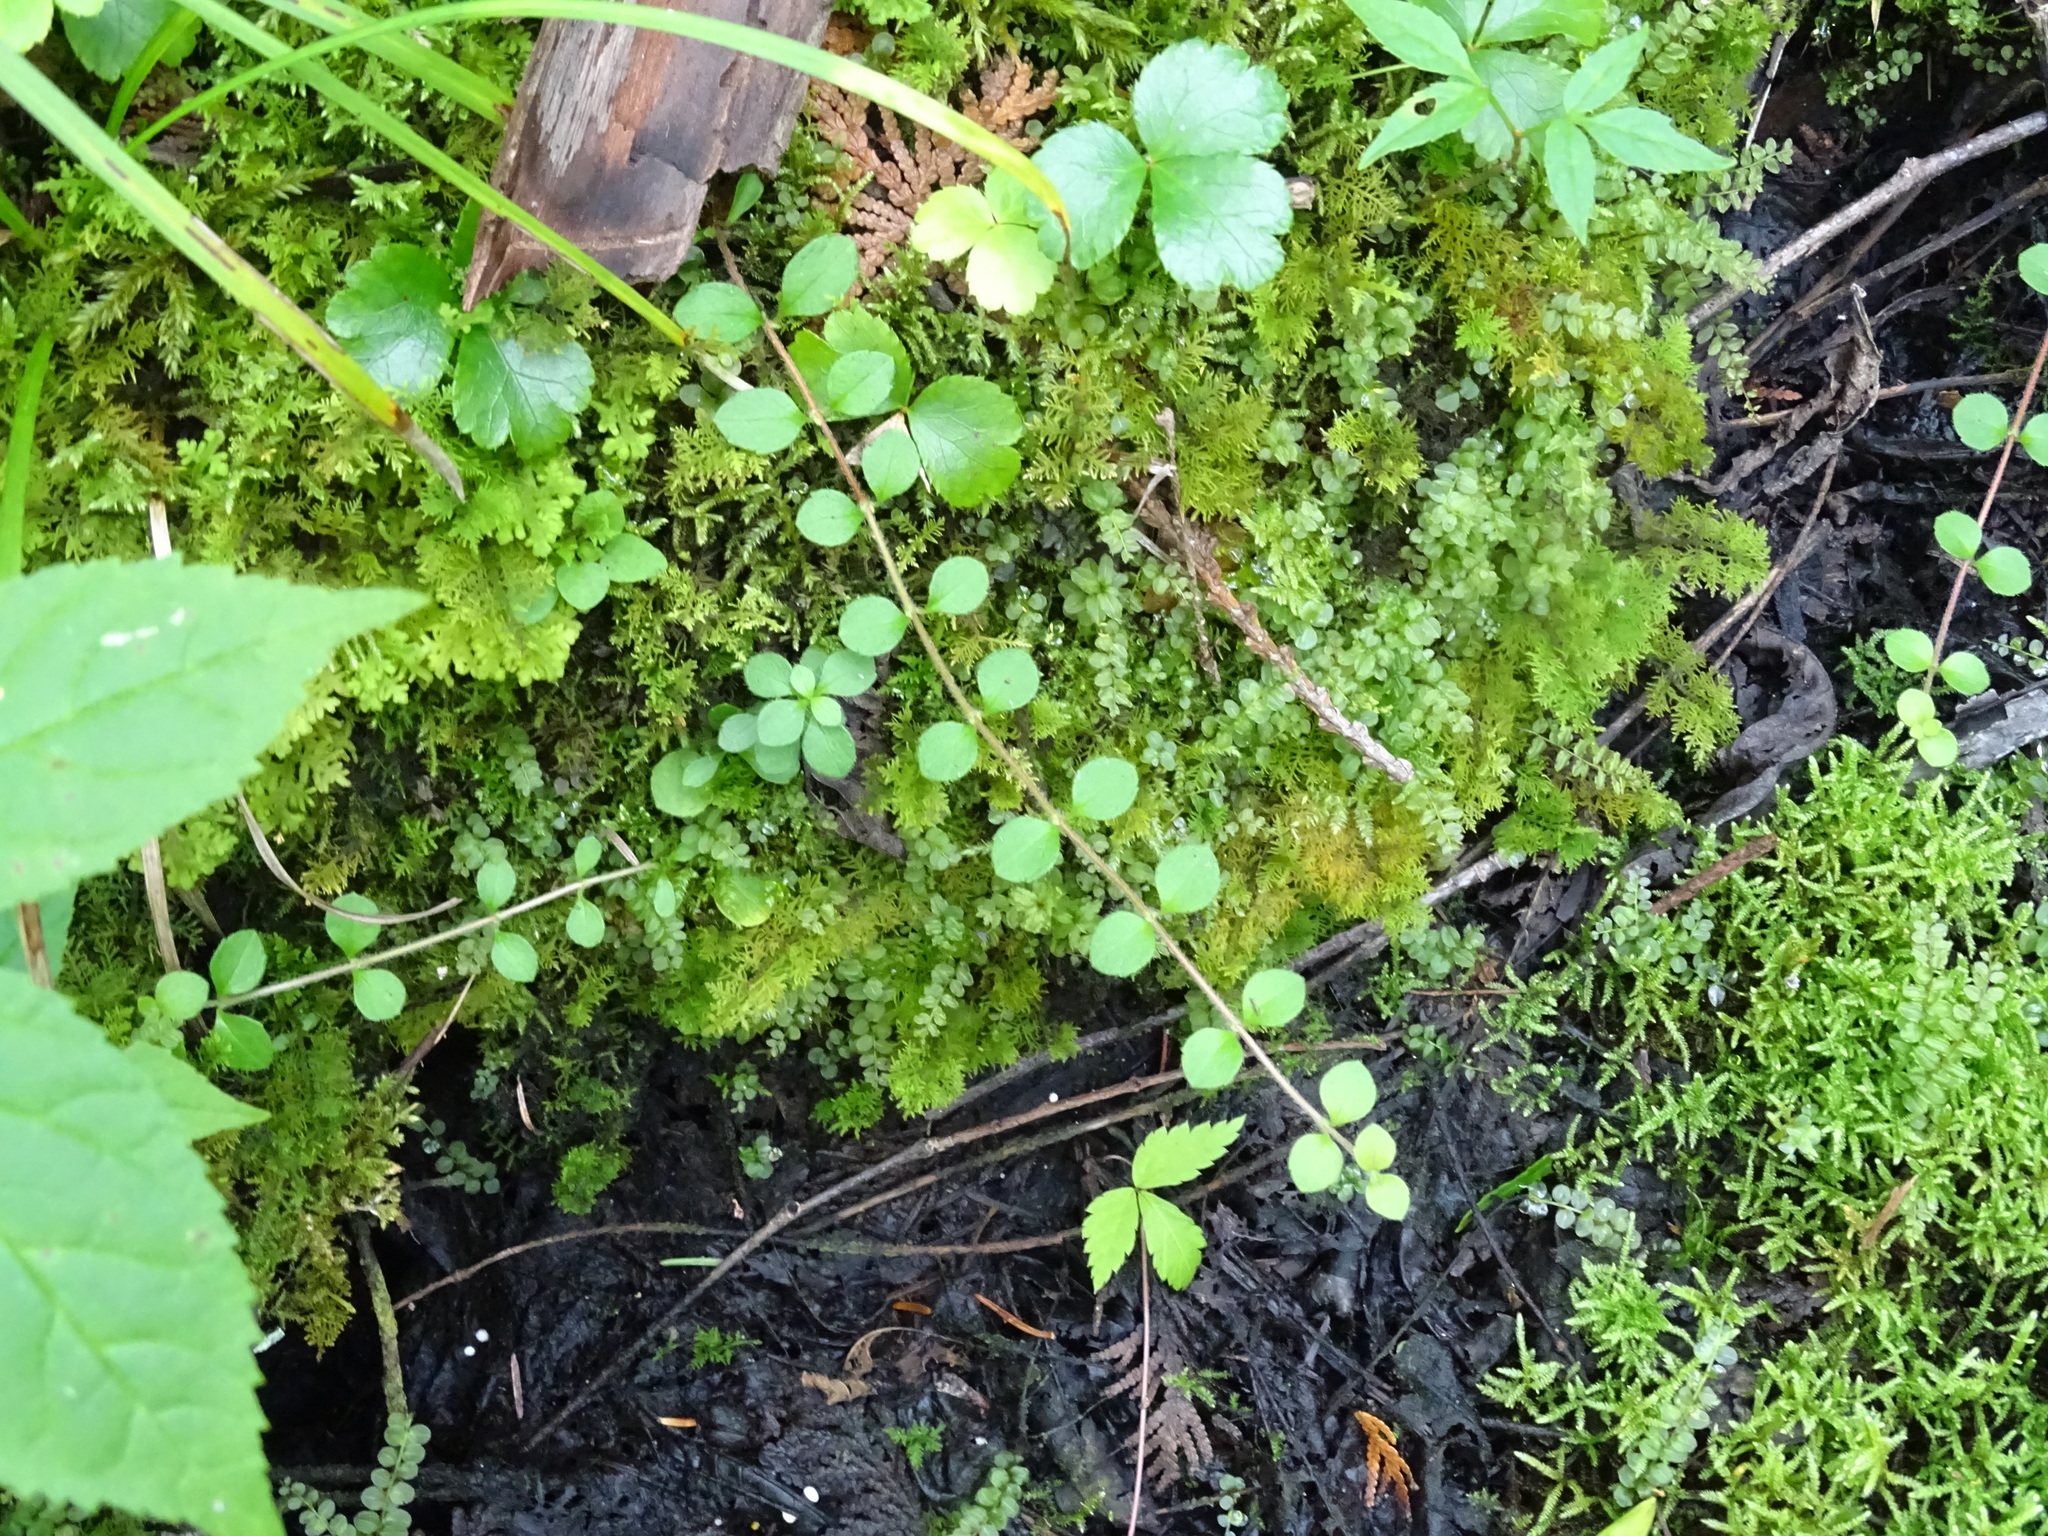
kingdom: Plantae
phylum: Tracheophyta
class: Magnoliopsida
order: Dipsacales
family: Caprifoliaceae
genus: Linnaea
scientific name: Linnaea borealis
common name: Twinflower
